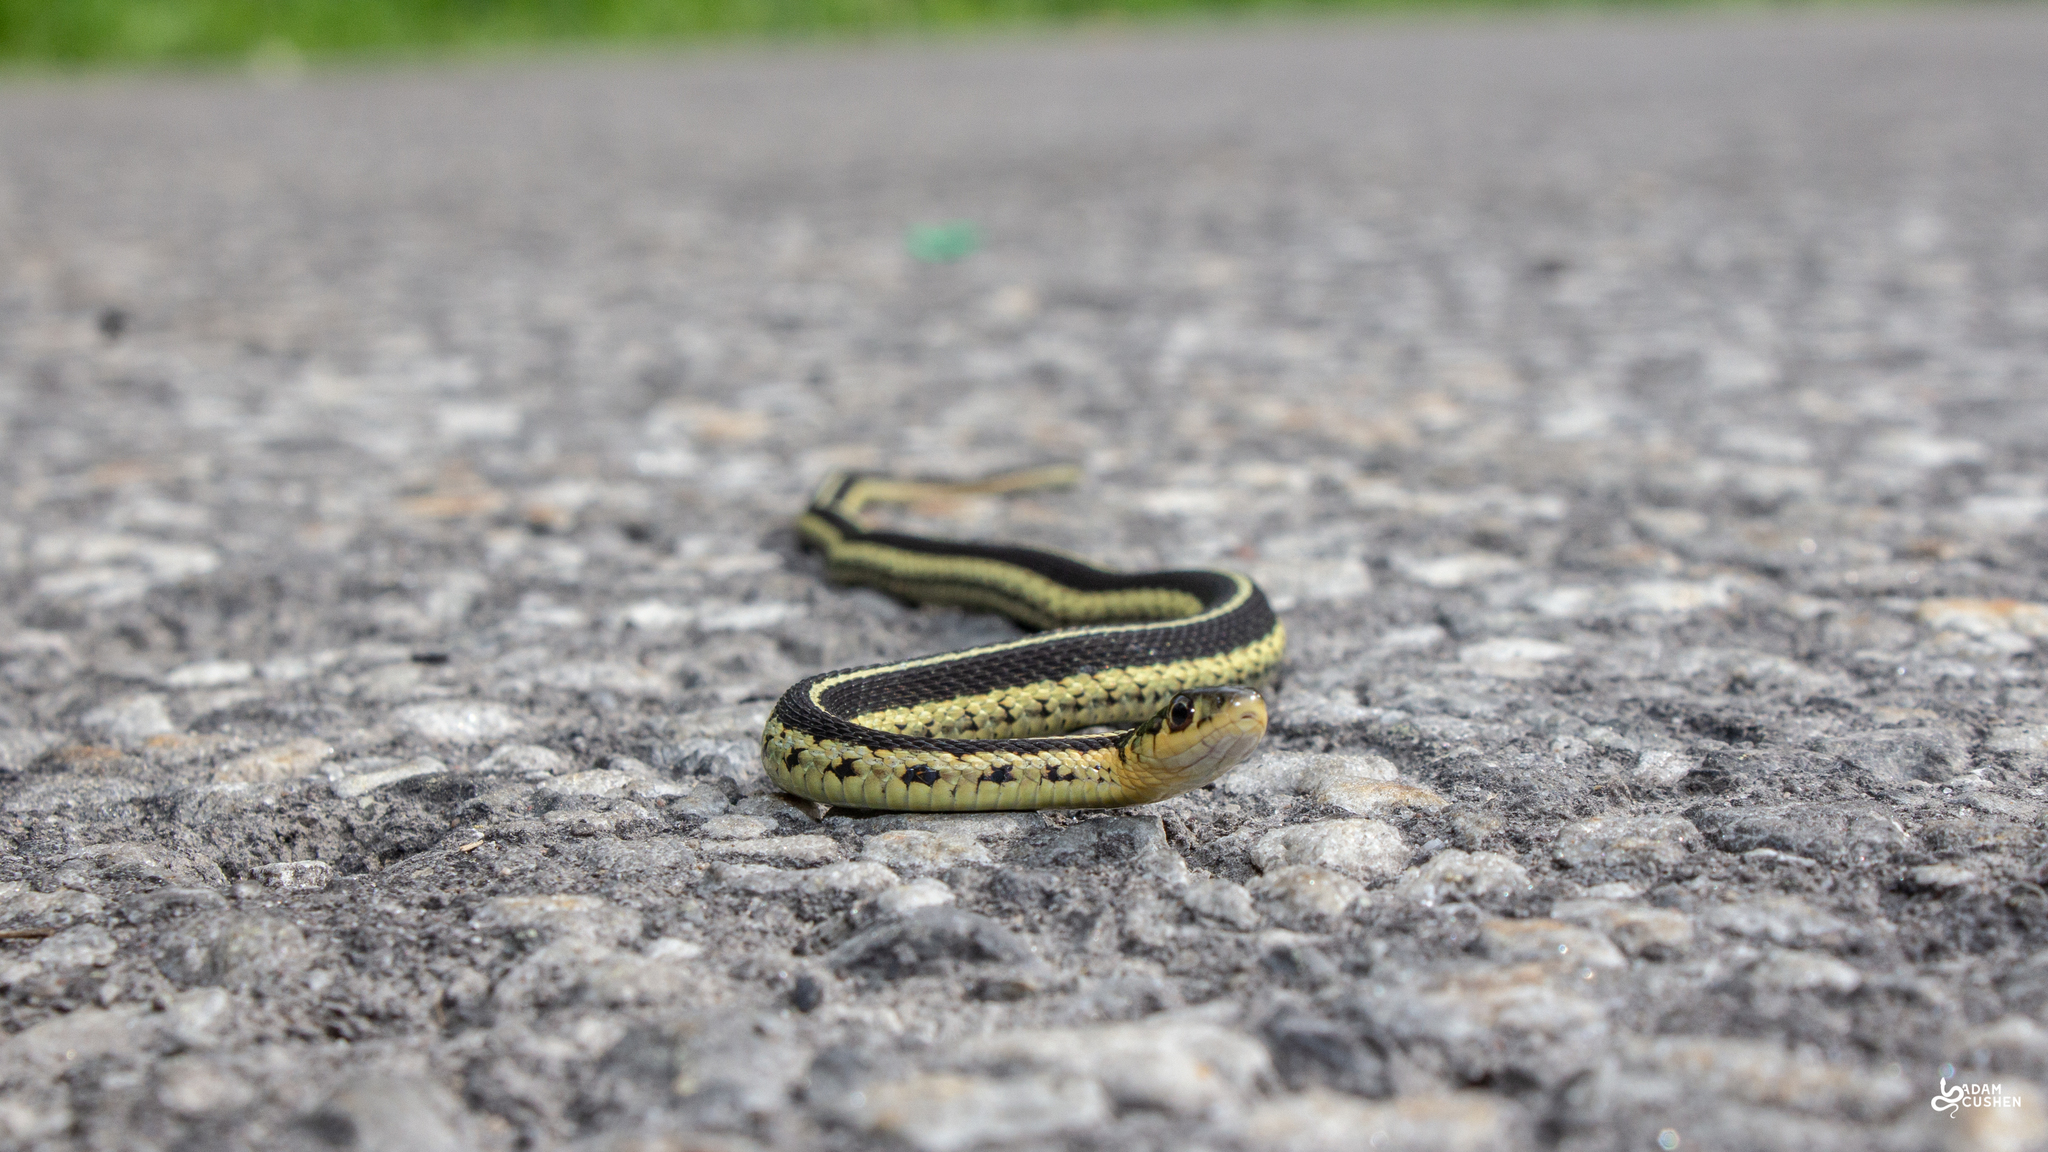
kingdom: Animalia
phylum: Chordata
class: Squamata
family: Colubridae
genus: Thamnophis
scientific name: Thamnophis sirtalis
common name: Common garter snake
